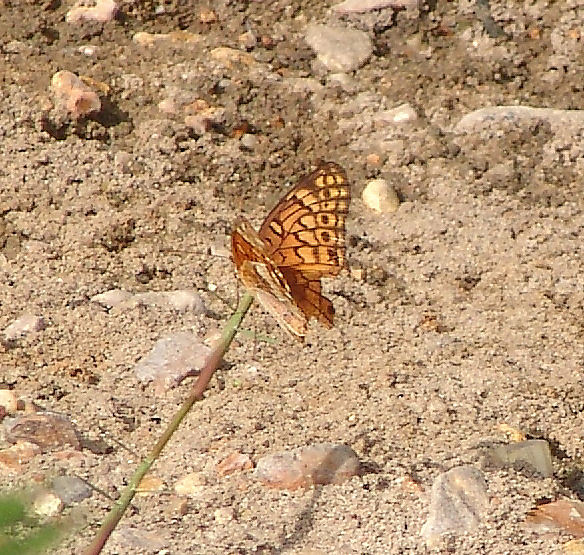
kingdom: Animalia
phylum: Arthropoda
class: Insecta
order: Lepidoptera
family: Nymphalidae
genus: Euptoieta
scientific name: Euptoieta claudia
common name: Variegated fritillary
